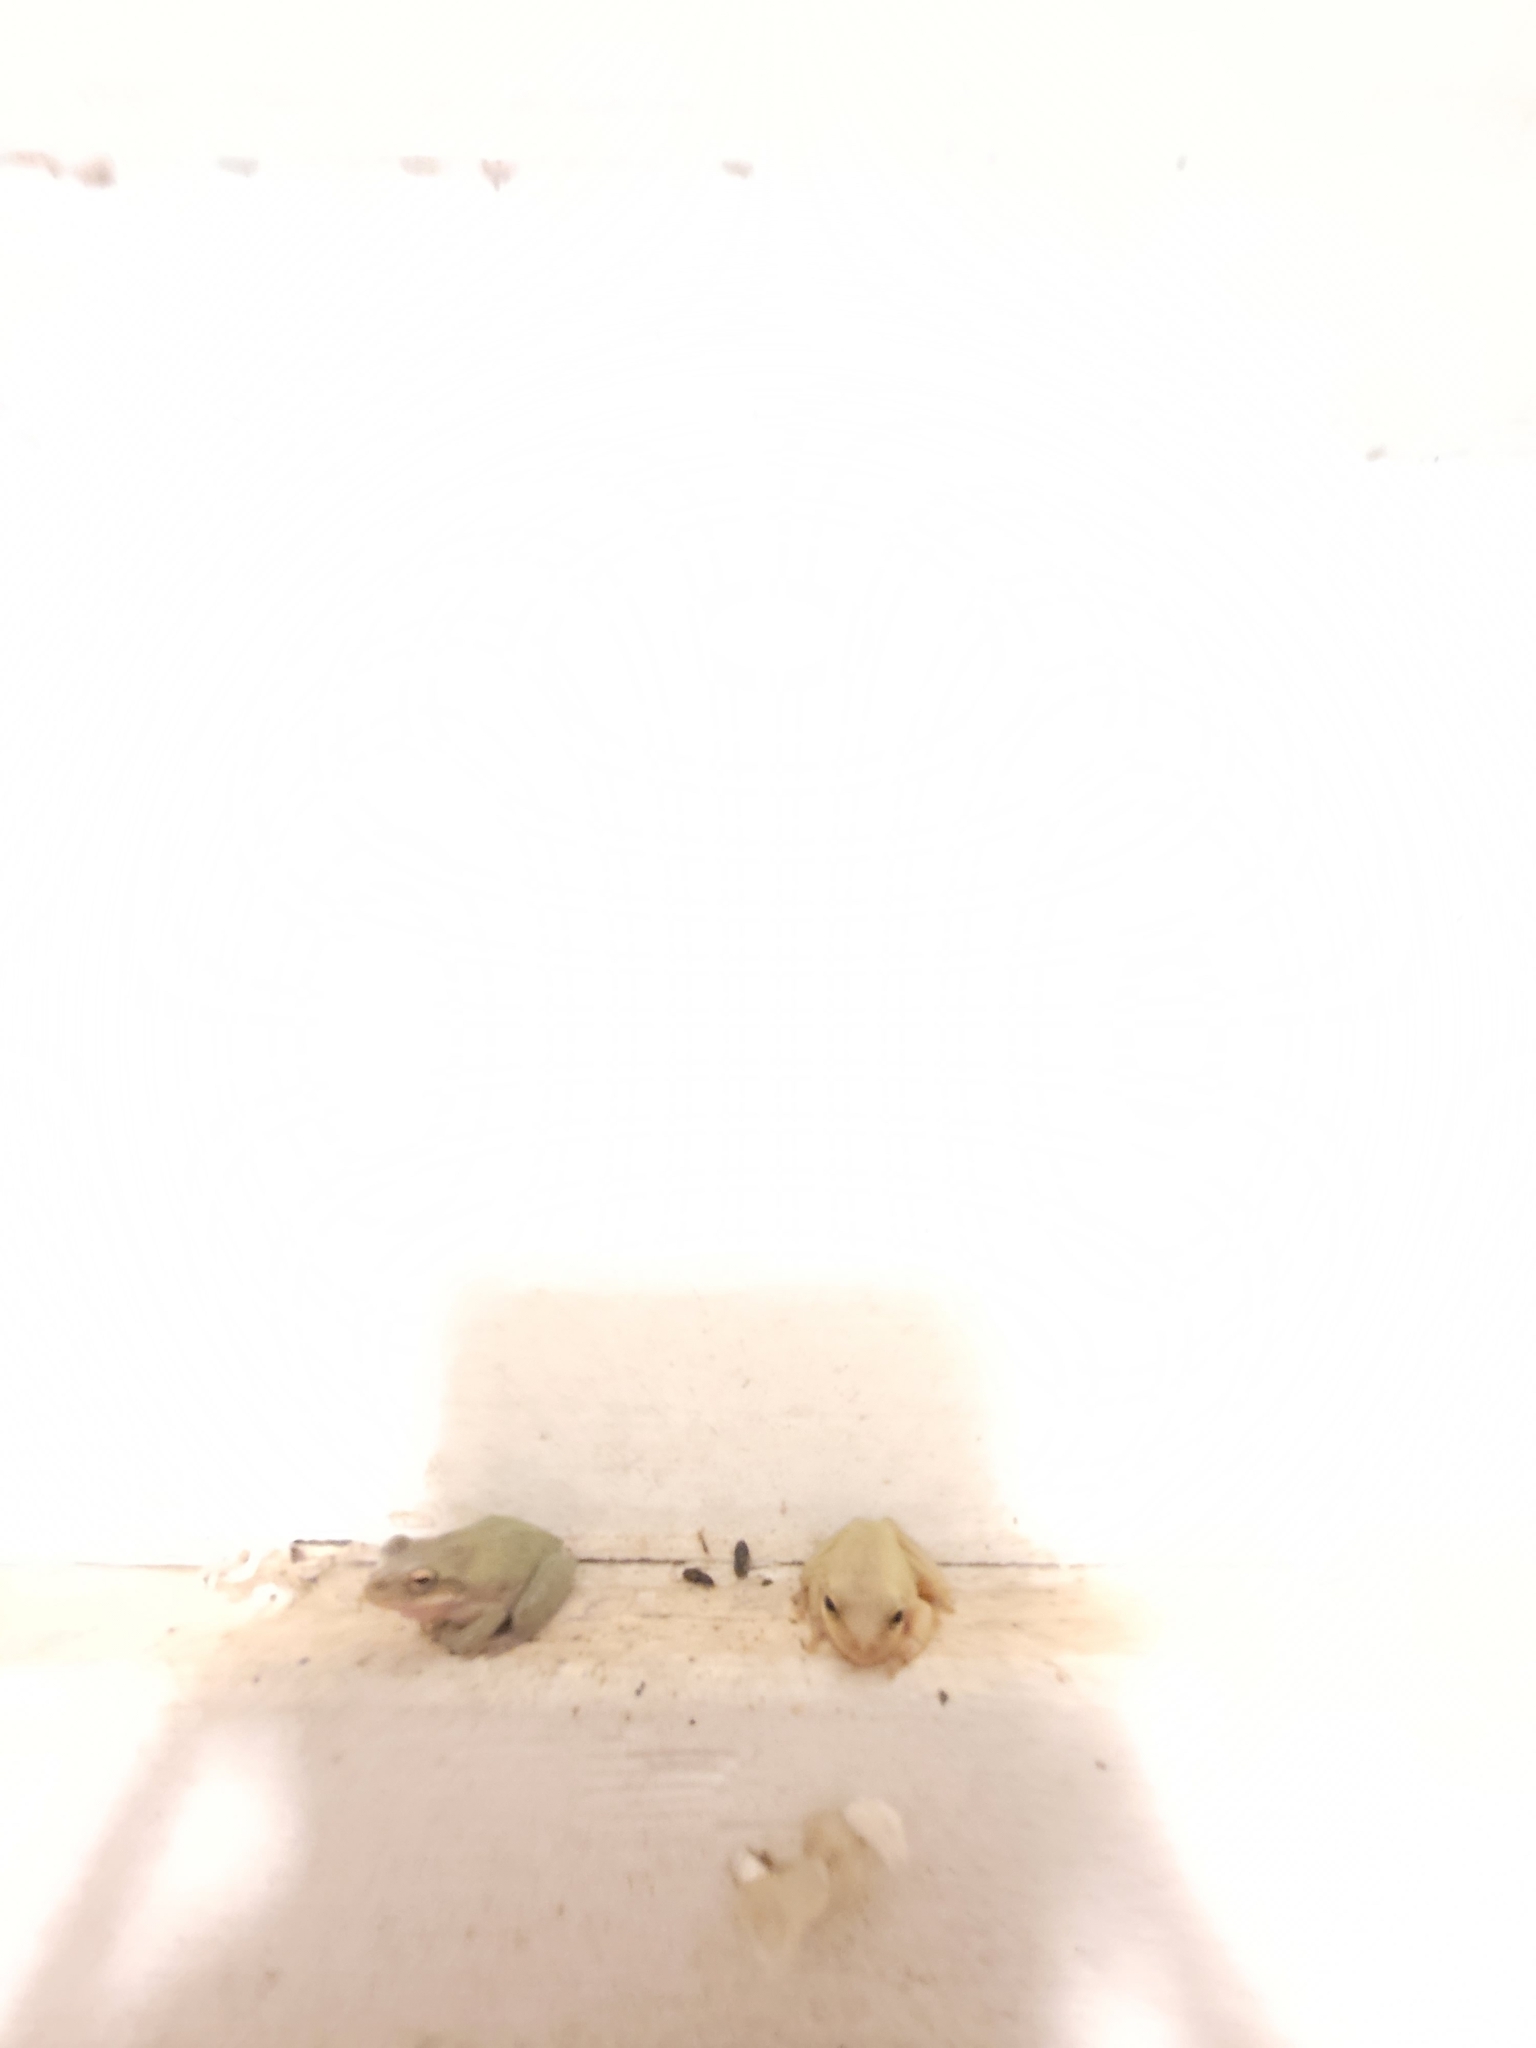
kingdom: Animalia
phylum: Chordata
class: Amphibia
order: Anura
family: Hylidae
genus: Dryophytes
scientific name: Dryophytes squirellus
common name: Squirrel treefrog
